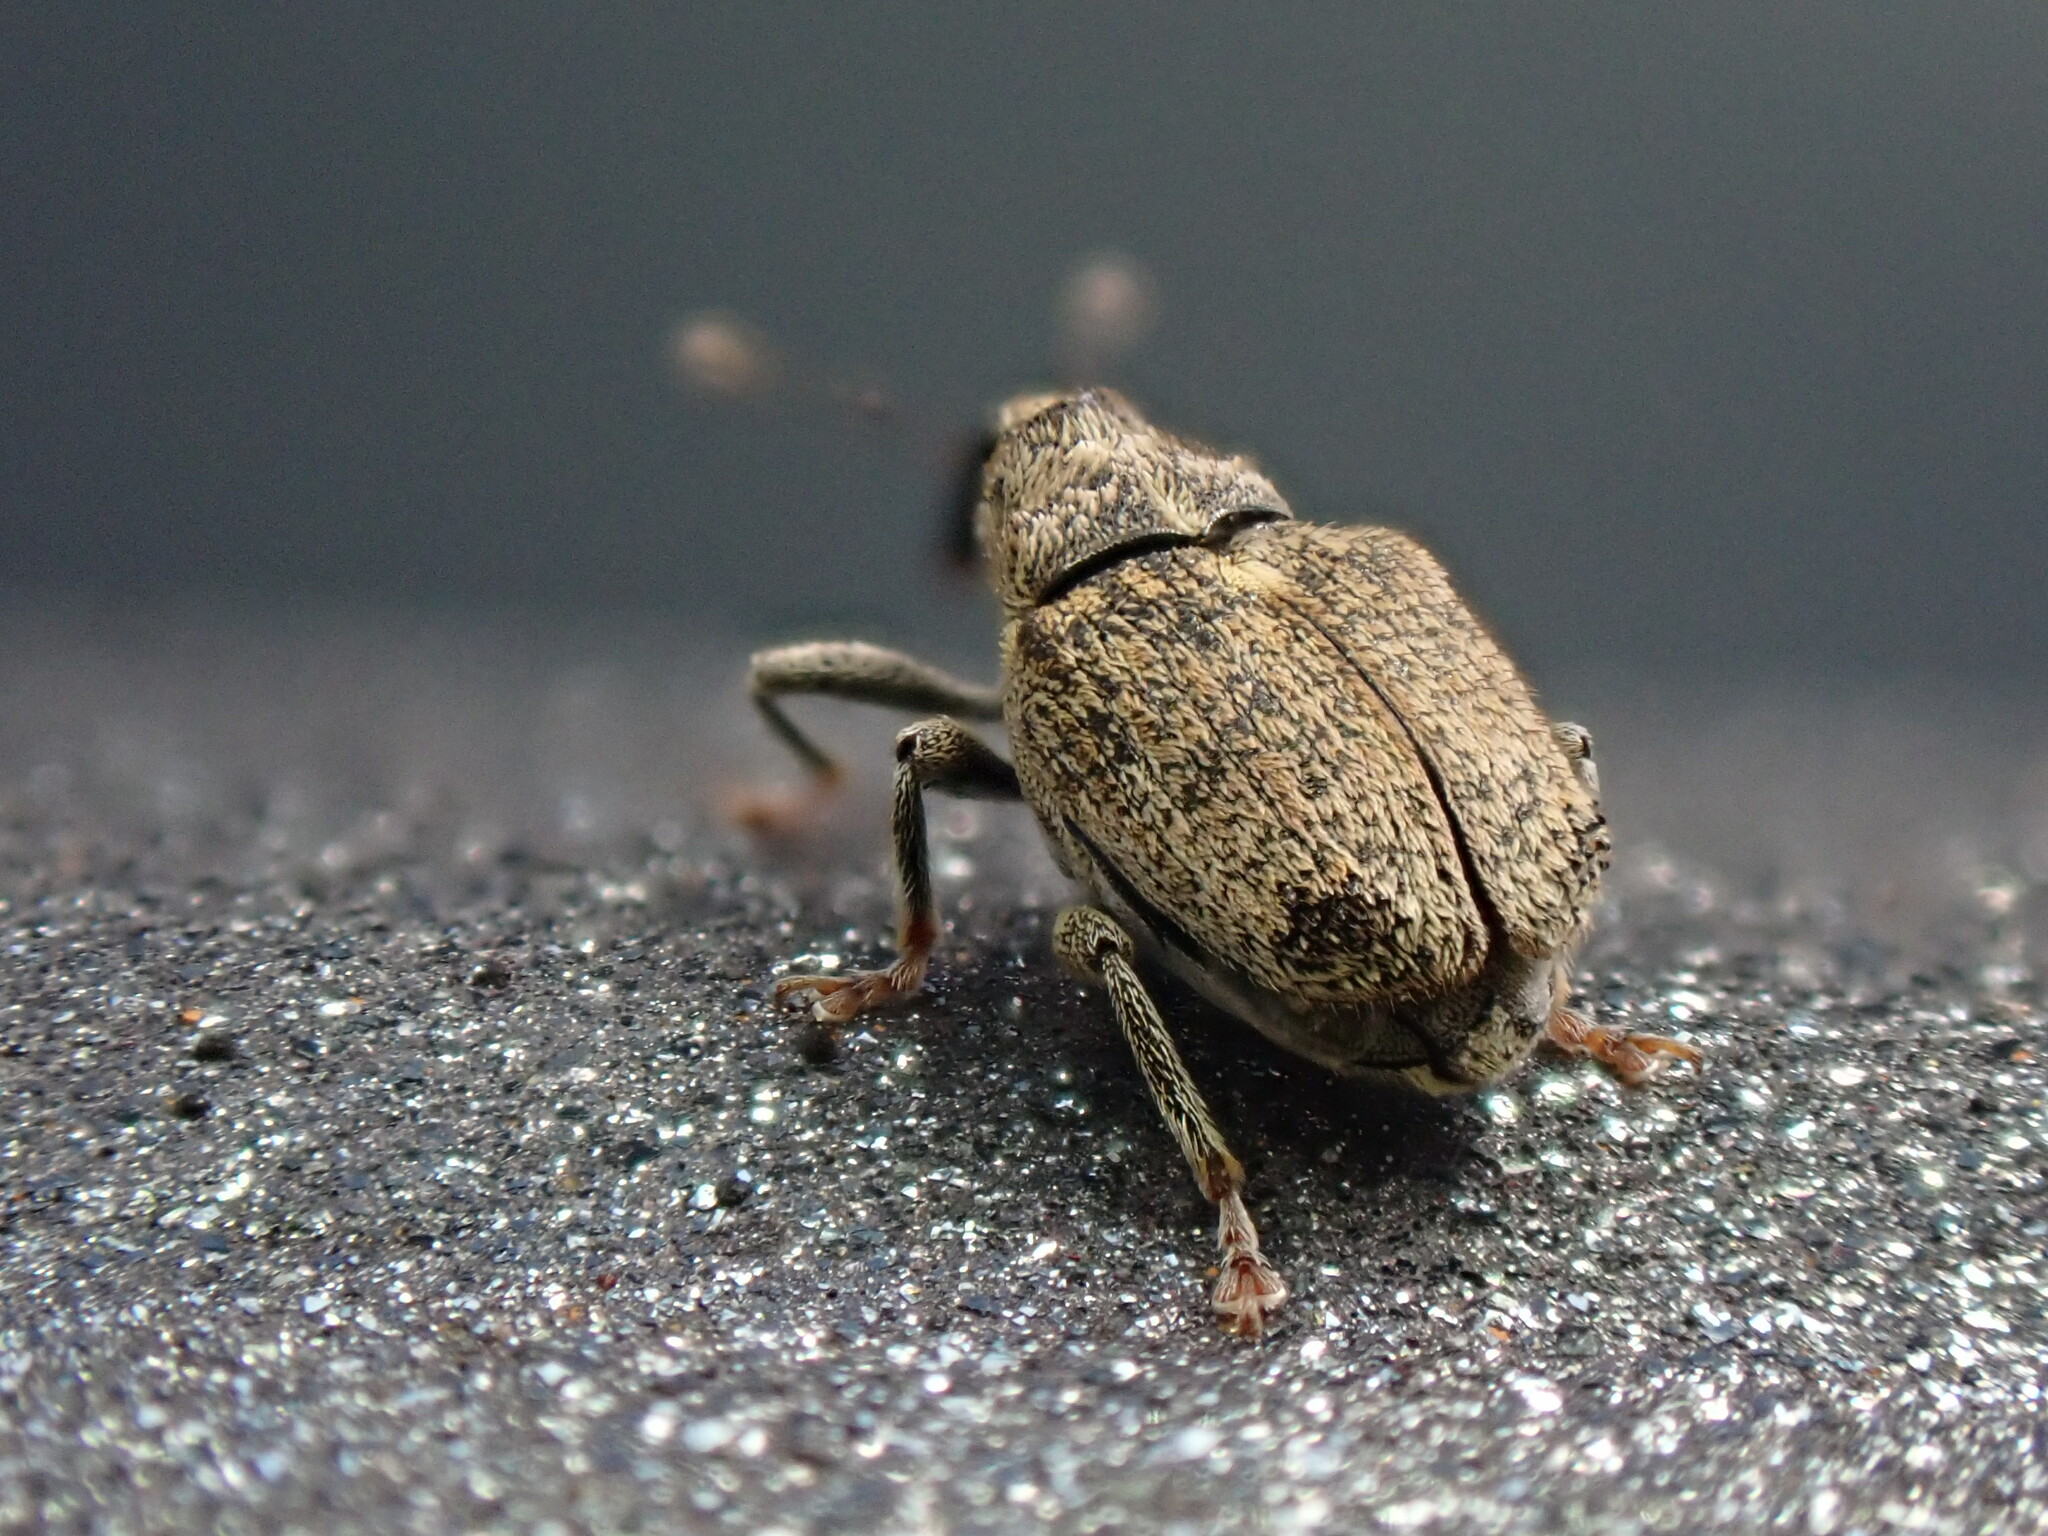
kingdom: Animalia
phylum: Arthropoda
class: Insecta
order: Coleoptera
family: Curculionidae
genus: Ceutorhynchus
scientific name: Ceutorhynchus pallidactylus
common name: Cabbage stem weavil
